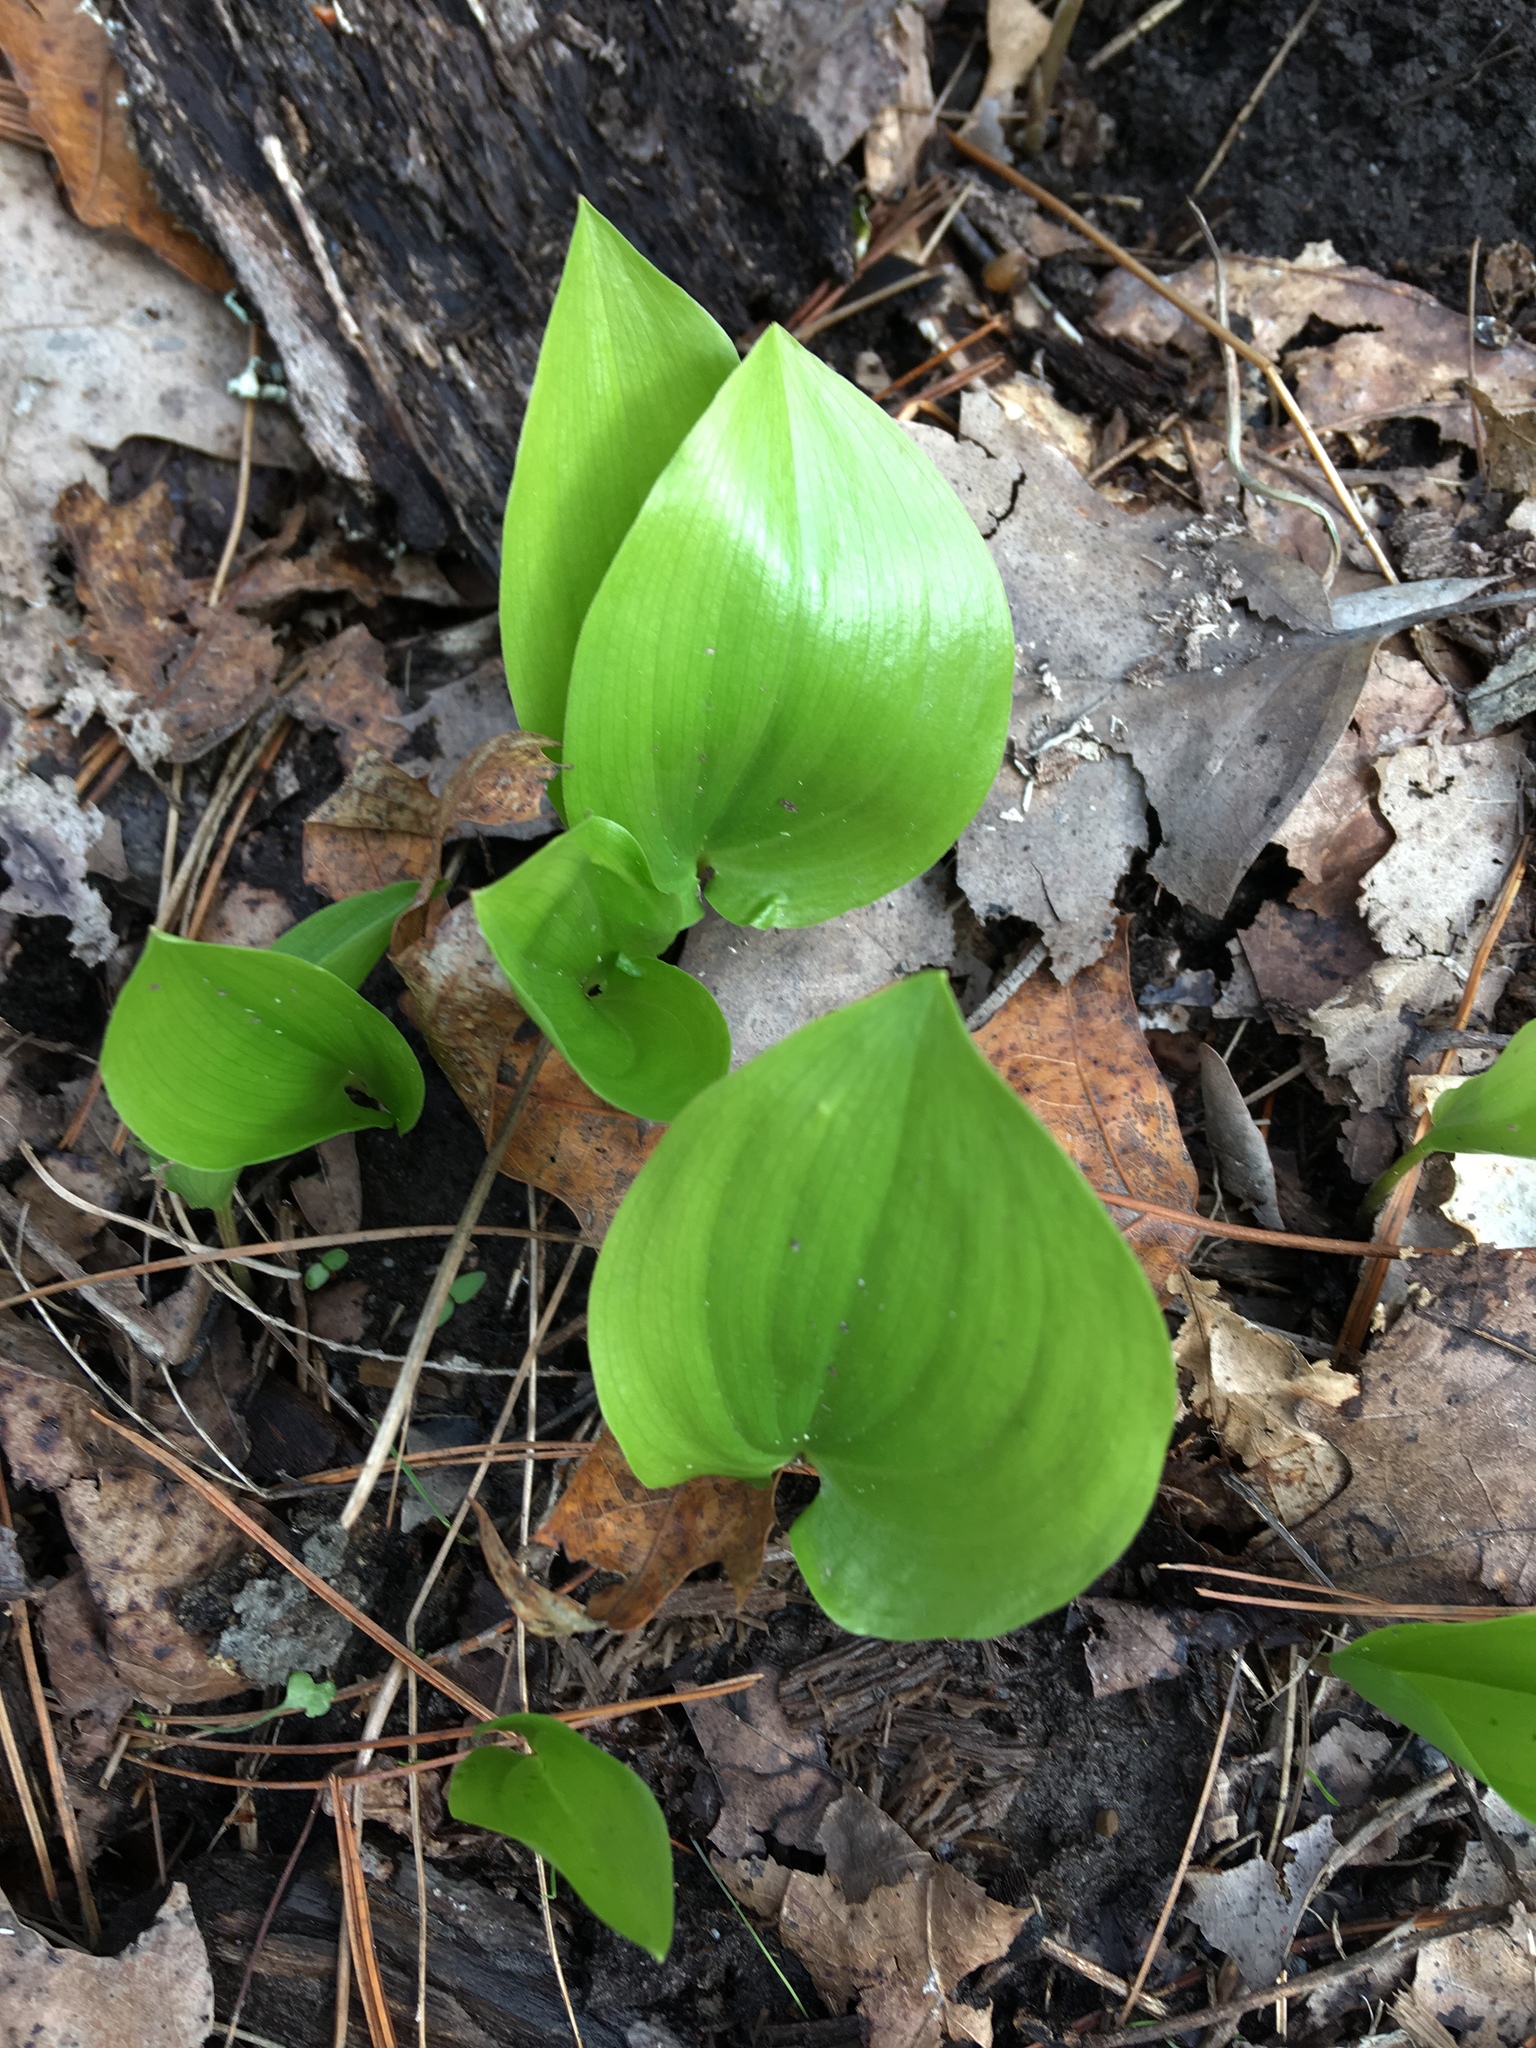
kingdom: Plantae
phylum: Tracheophyta
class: Liliopsida
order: Asparagales
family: Asparagaceae
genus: Maianthemum
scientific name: Maianthemum canadense
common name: False lily-of-the-valley
